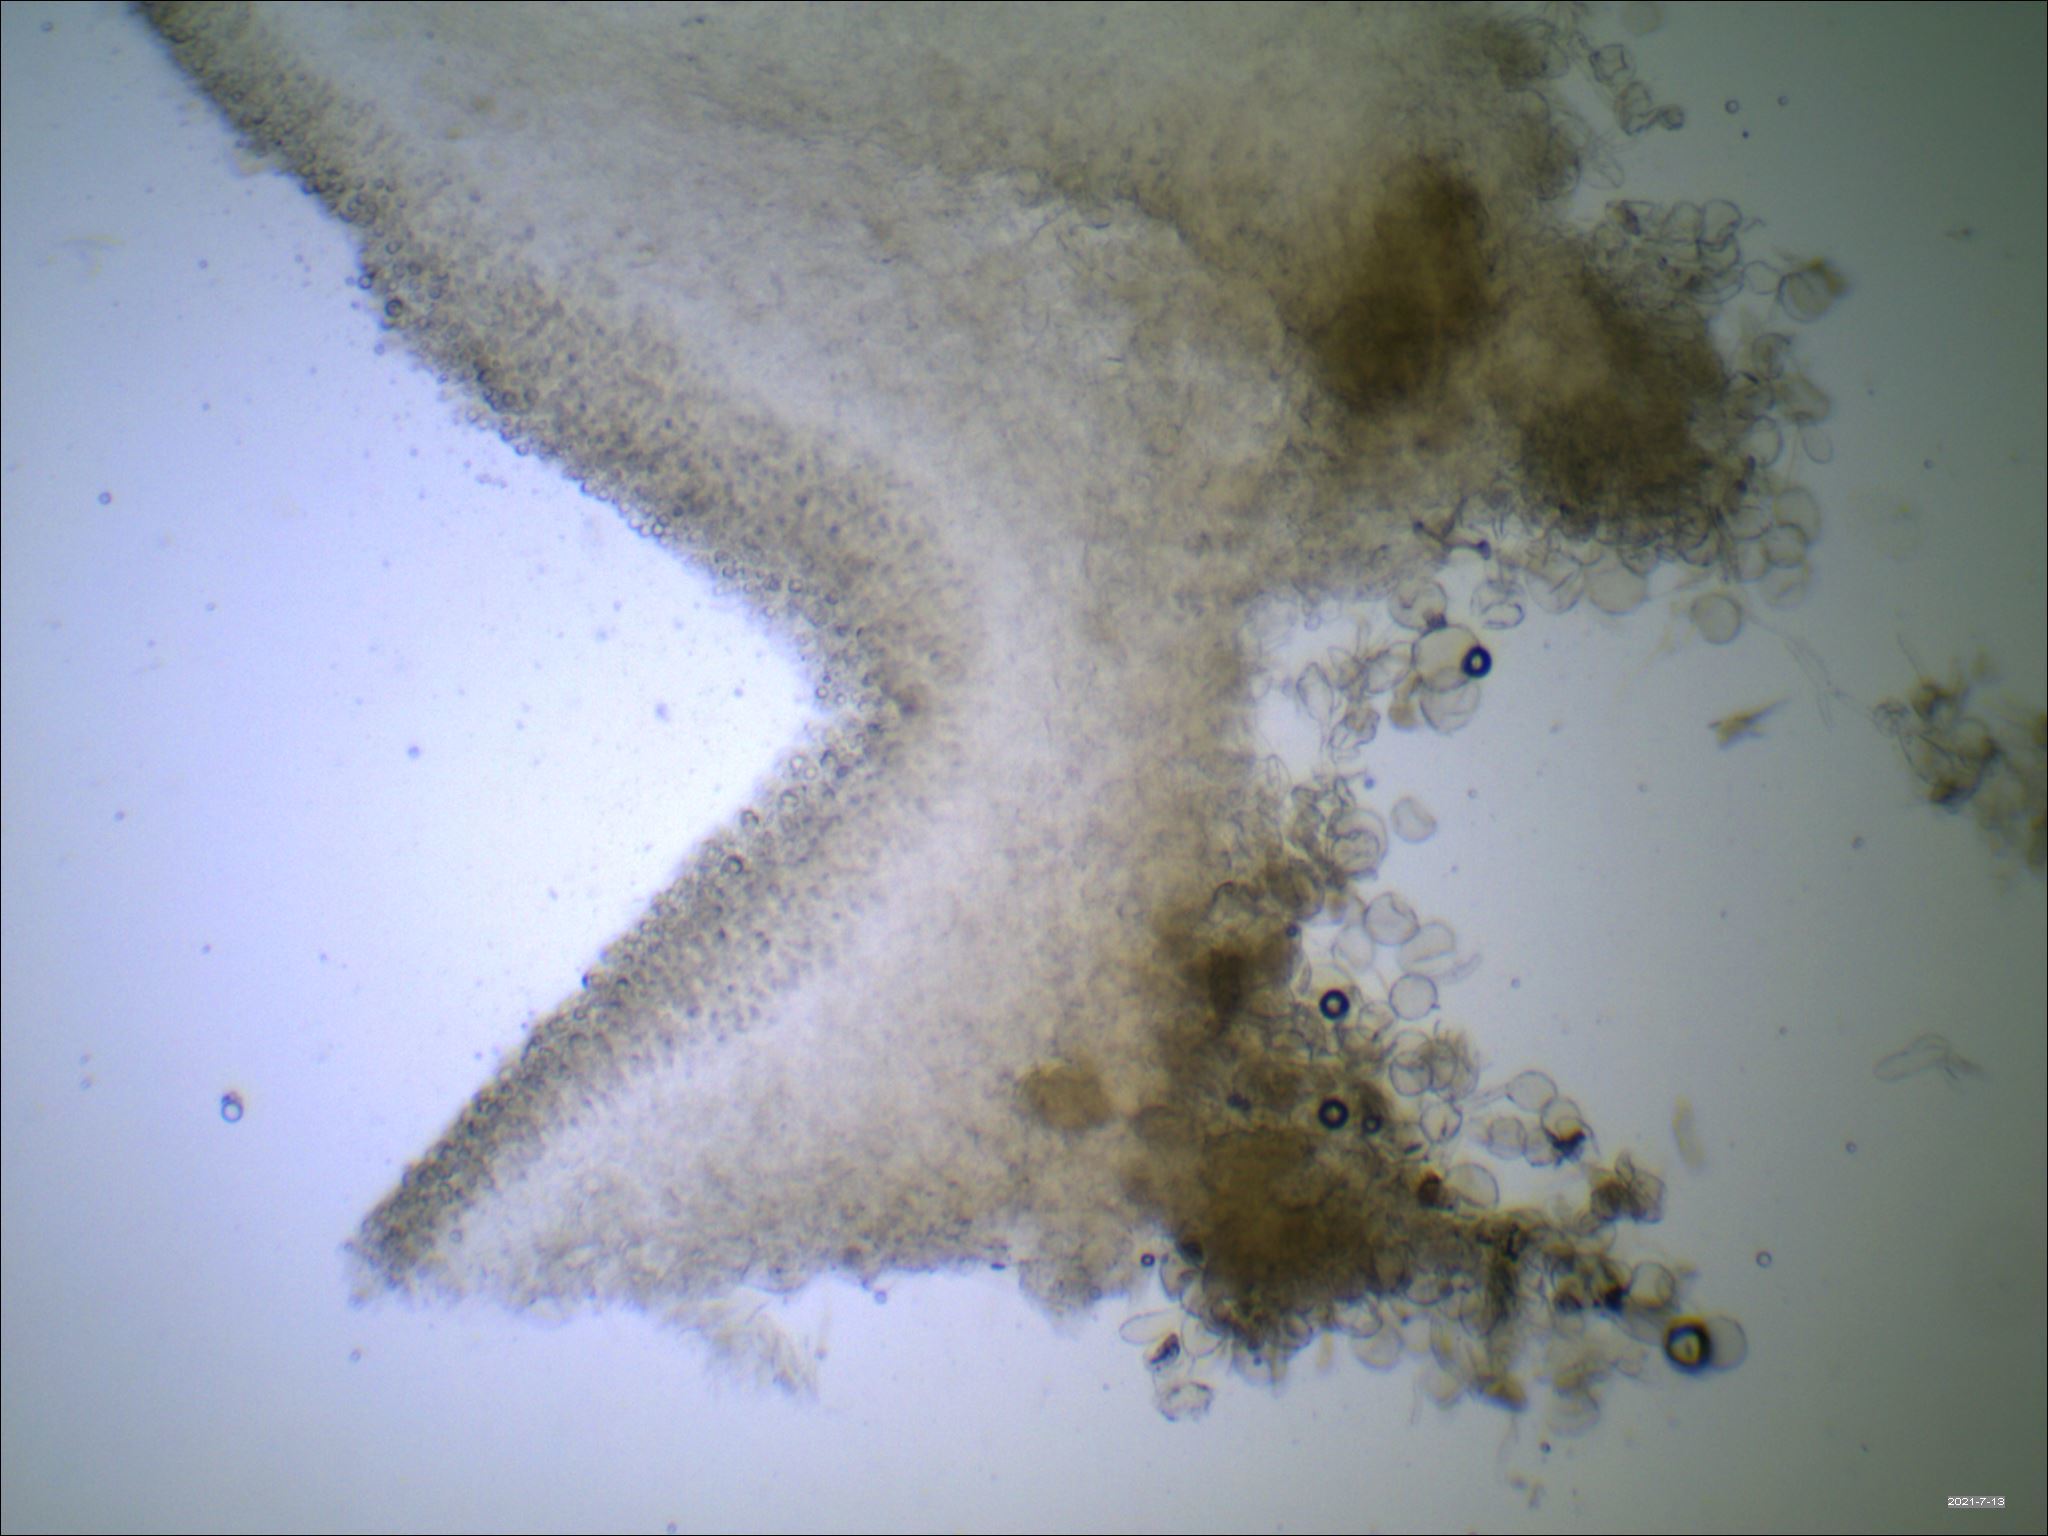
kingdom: Fungi
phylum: Basidiomycota
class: Agaricomycetes
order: Agaricales
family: Amanitaceae
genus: Amanita
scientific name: Amanita farinosa
